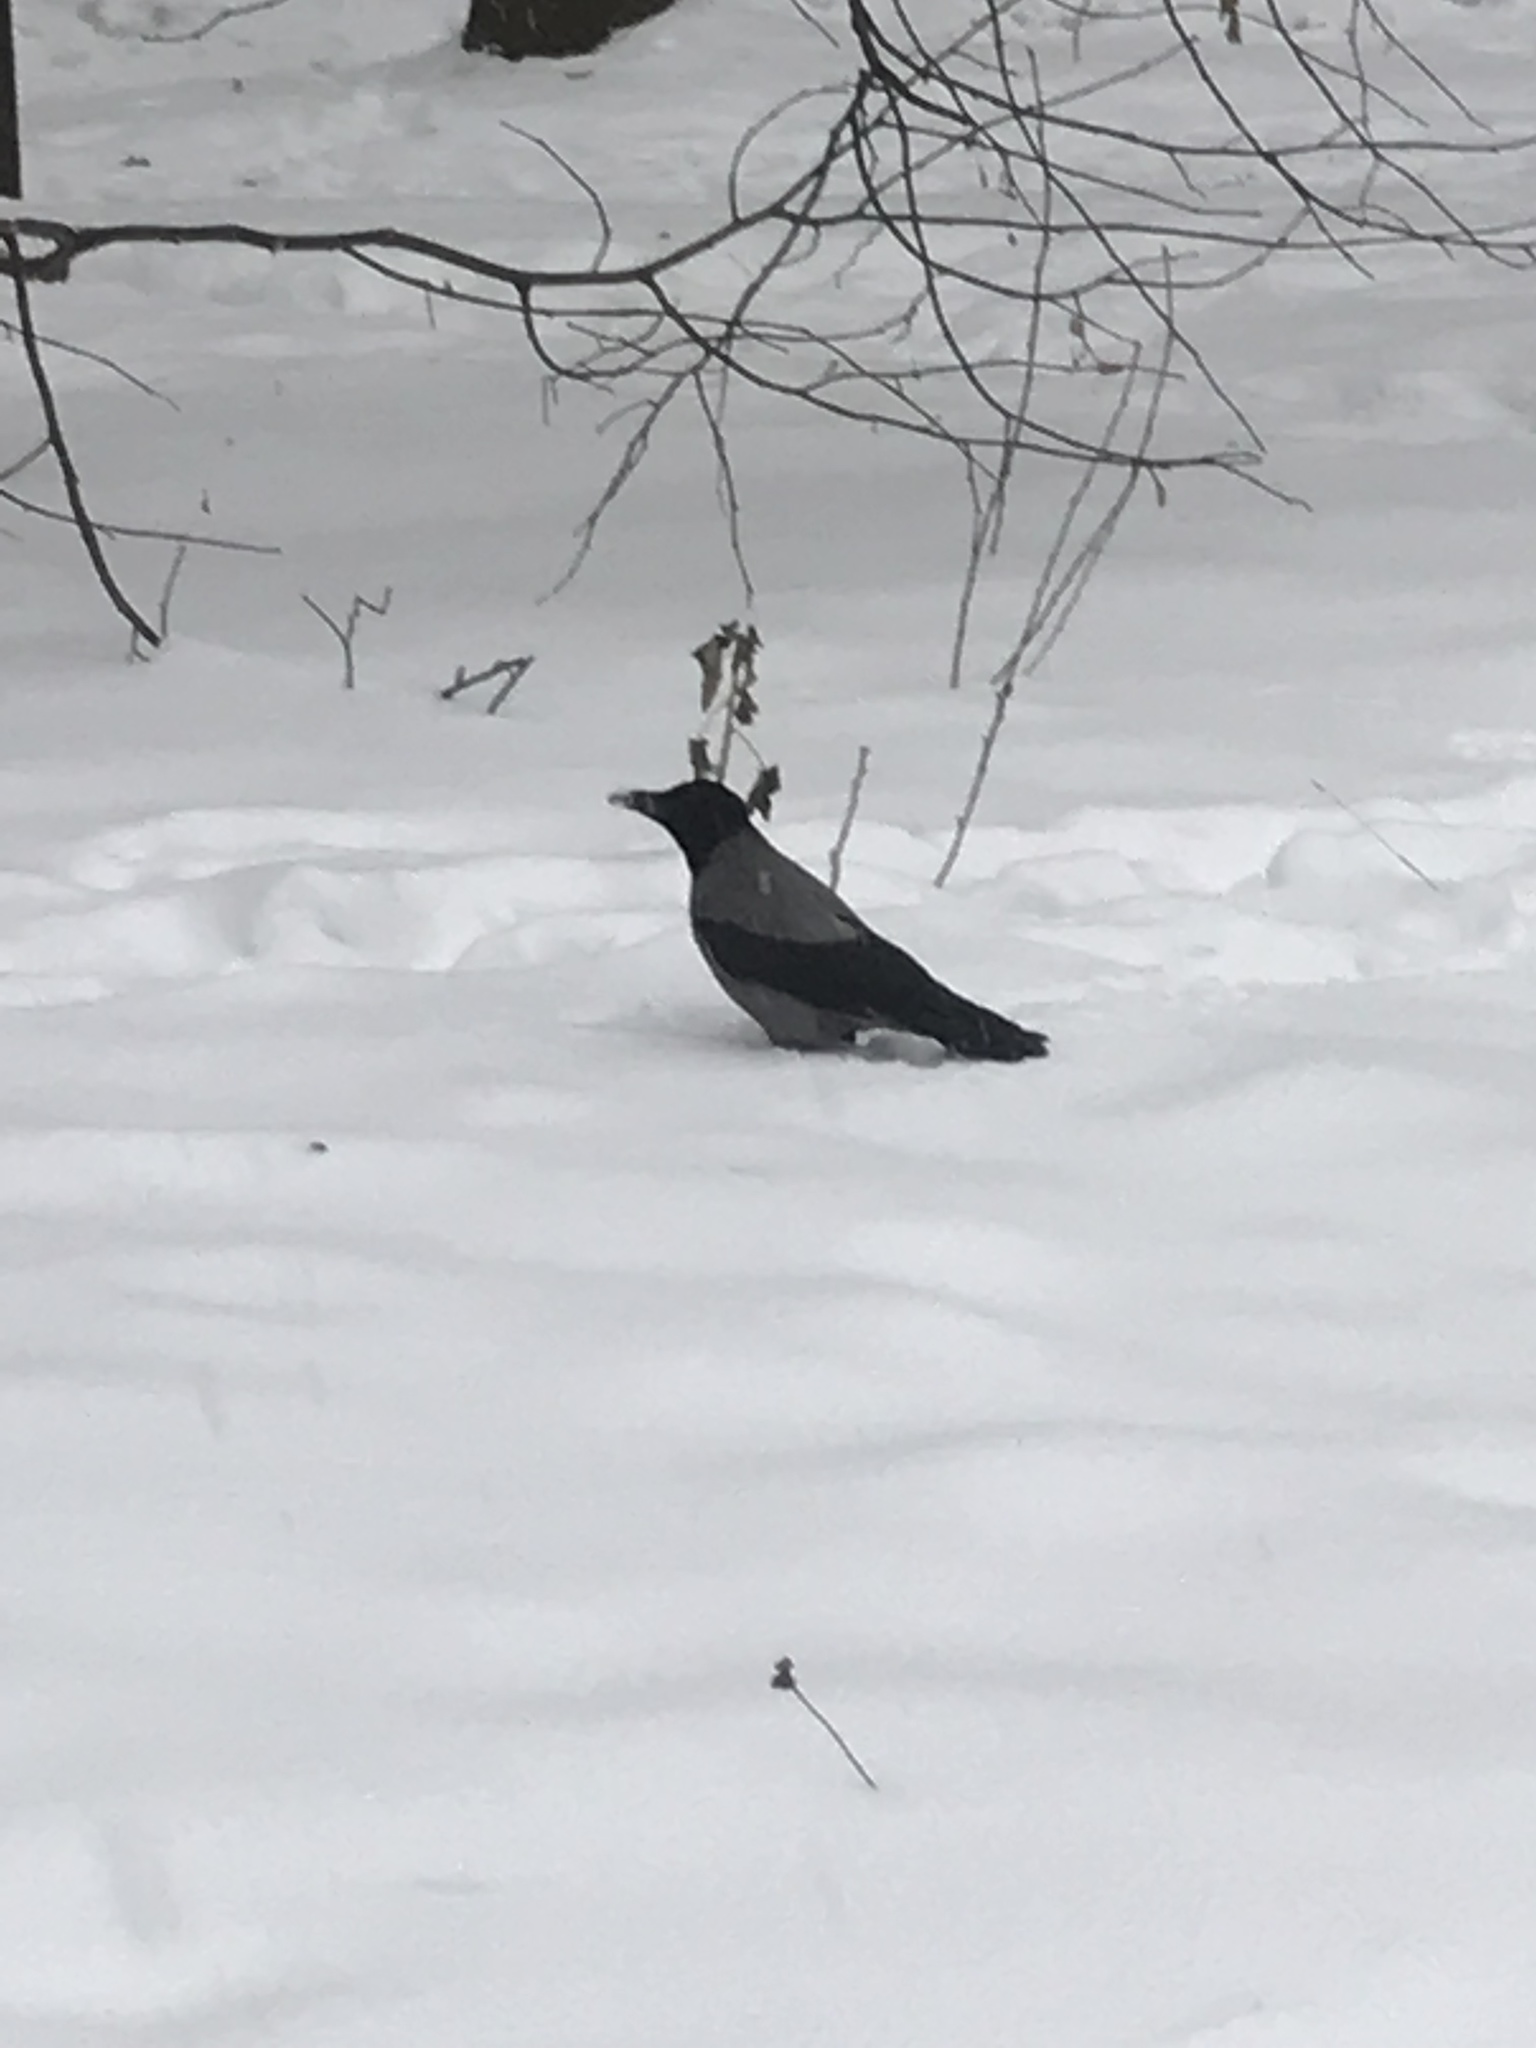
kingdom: Animalia
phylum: Chordata
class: Aves
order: Passeriformes
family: Corvidae
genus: Corvus
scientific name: Corvus cornix
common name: Hooded crow
